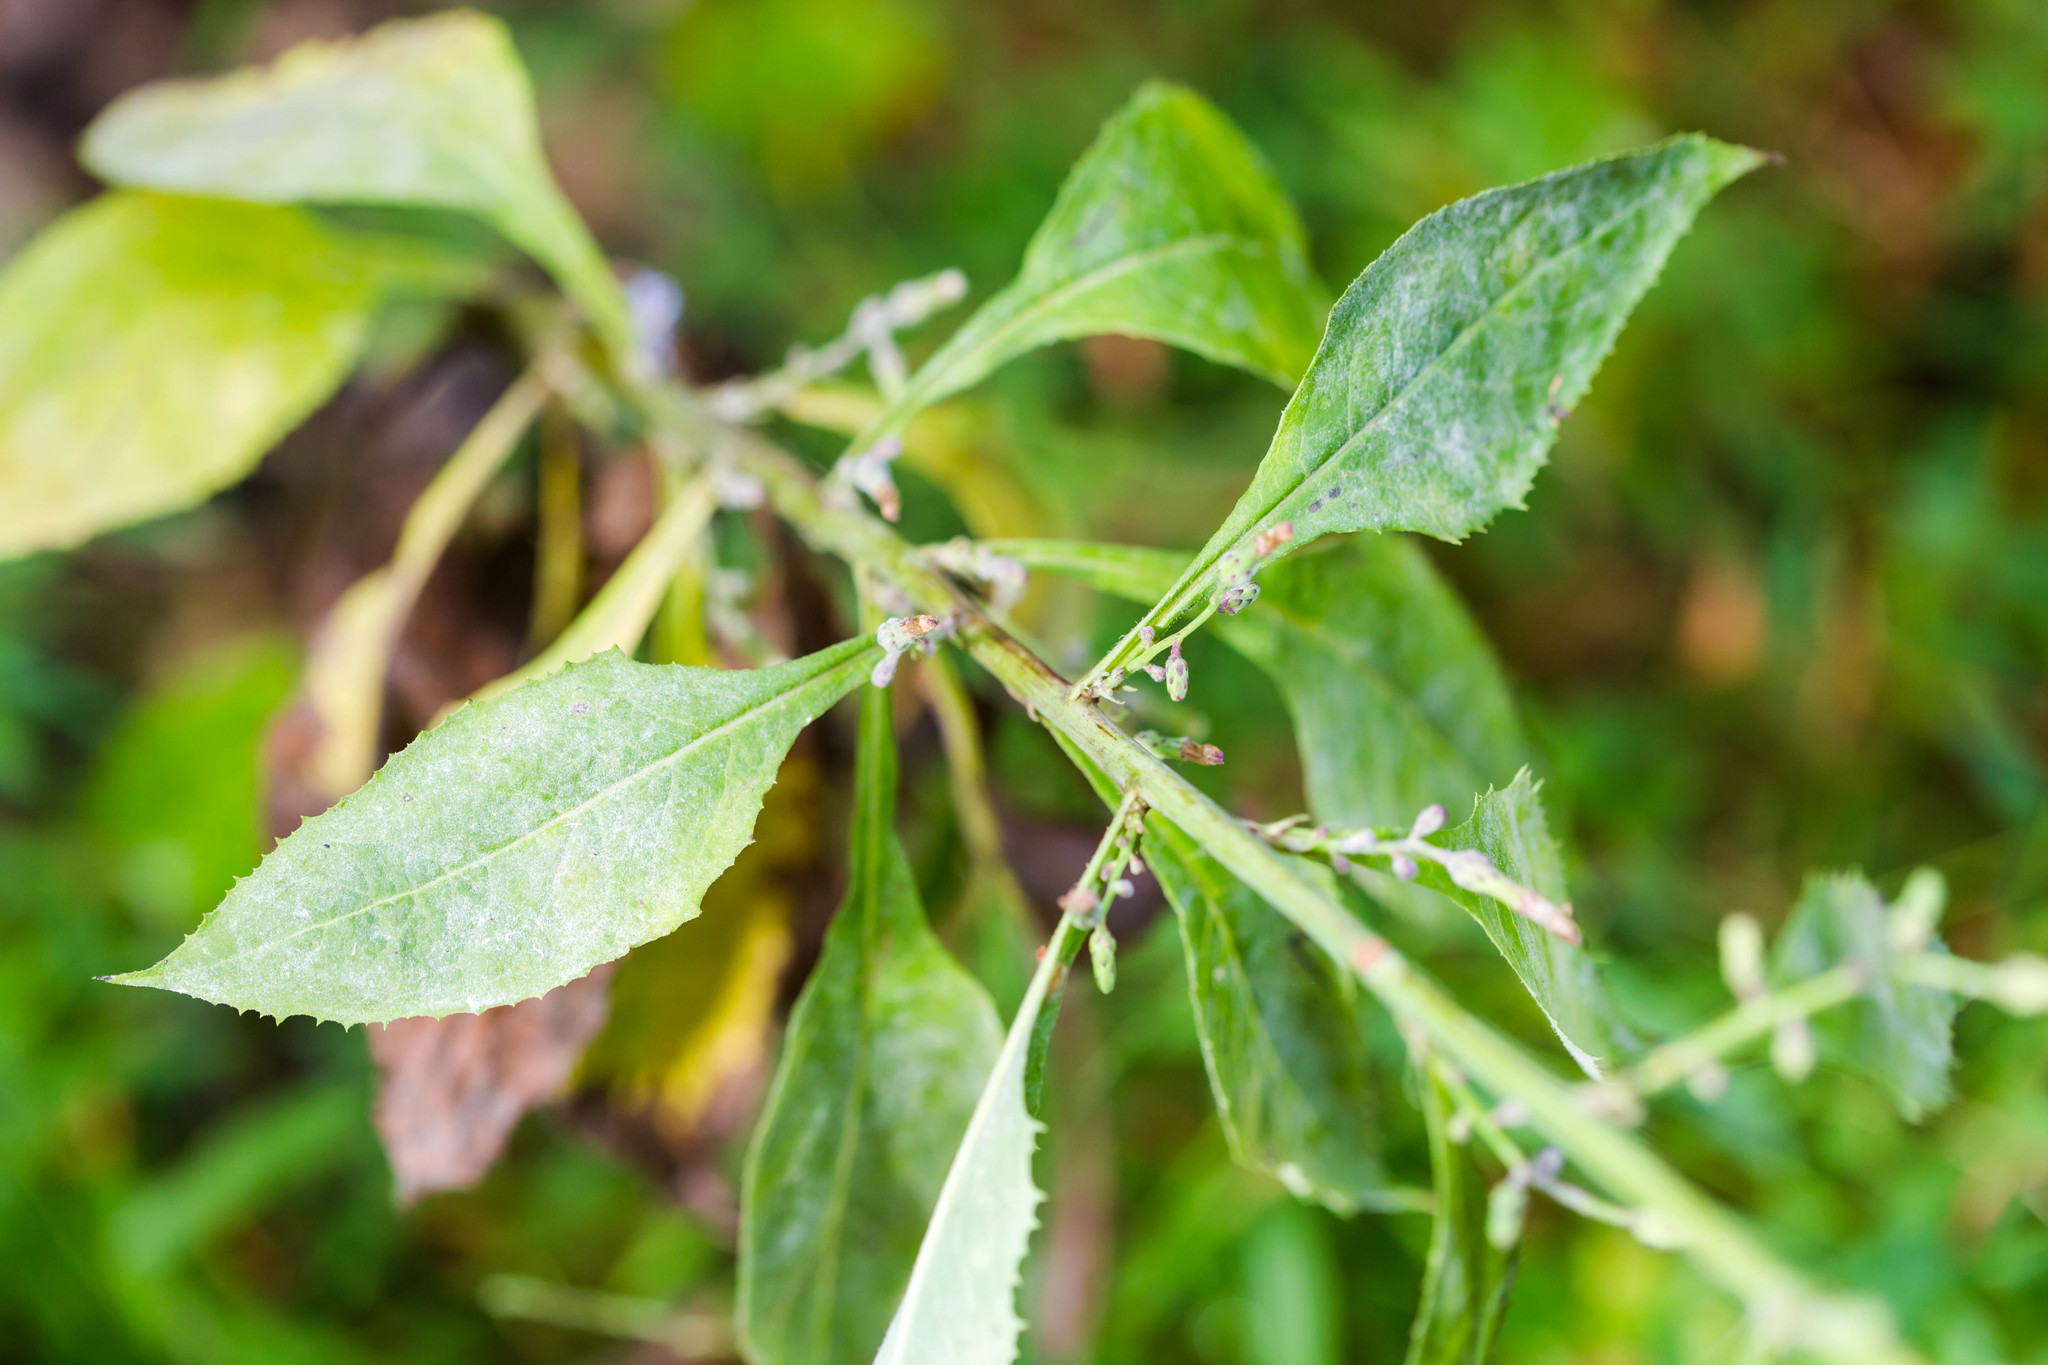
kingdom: Plantae
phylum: Tracheophyta
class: Magnoliopsida
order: Asterales
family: Asteraceae
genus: Lactuca
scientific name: Lactuca floridana
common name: Woodland lettuce
